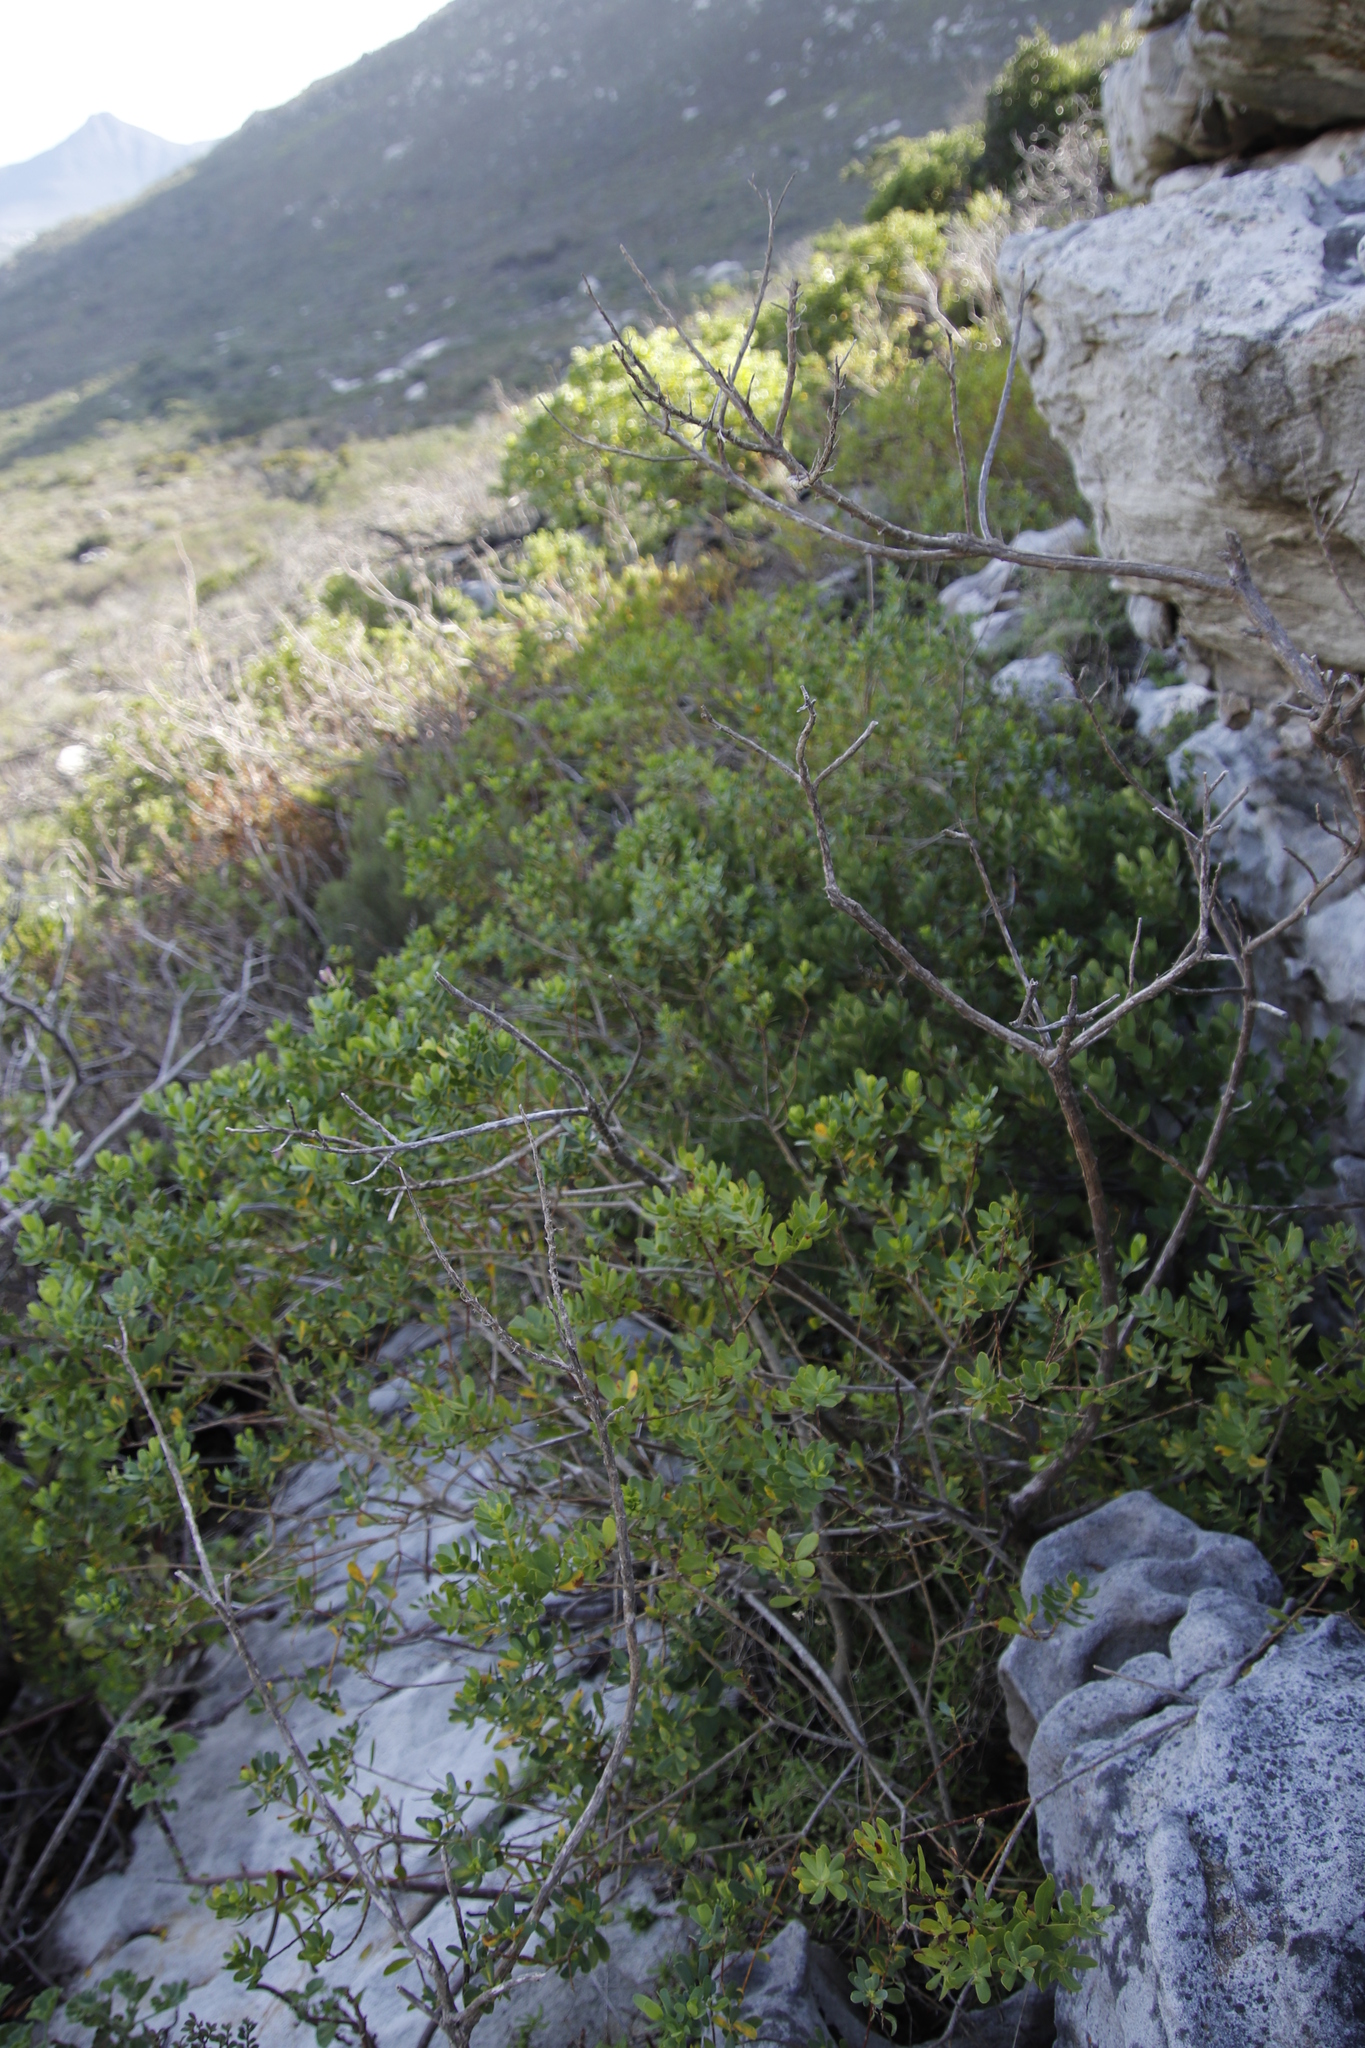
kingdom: Plantae
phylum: Tracheophyta
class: Magnoliopsida
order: Fabales
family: Polygalaceae
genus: Polygala
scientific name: Polygala myrtifolia
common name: Myrtle-leaf milkwort
